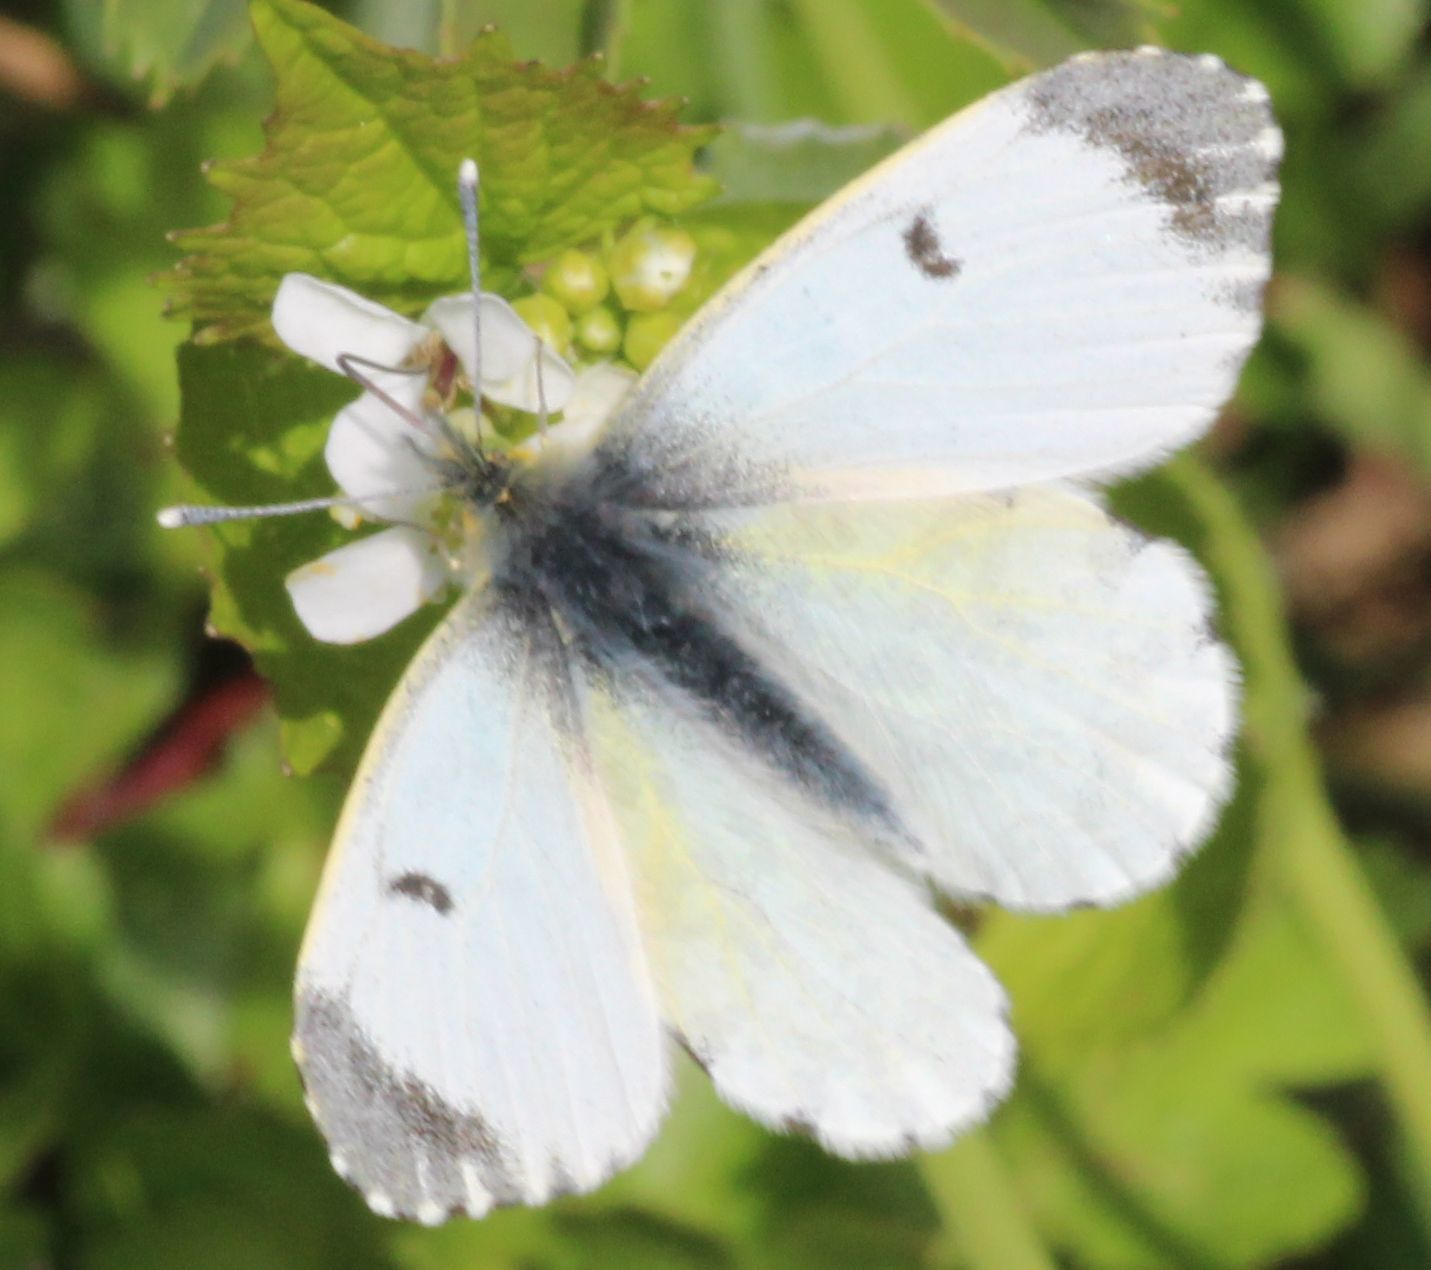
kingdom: Animalia
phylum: Arthropoda
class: Insecta
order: Lepidoptera
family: Pieridae
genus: Anthocharis
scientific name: Anthocharis cardamines
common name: Orange-tip
